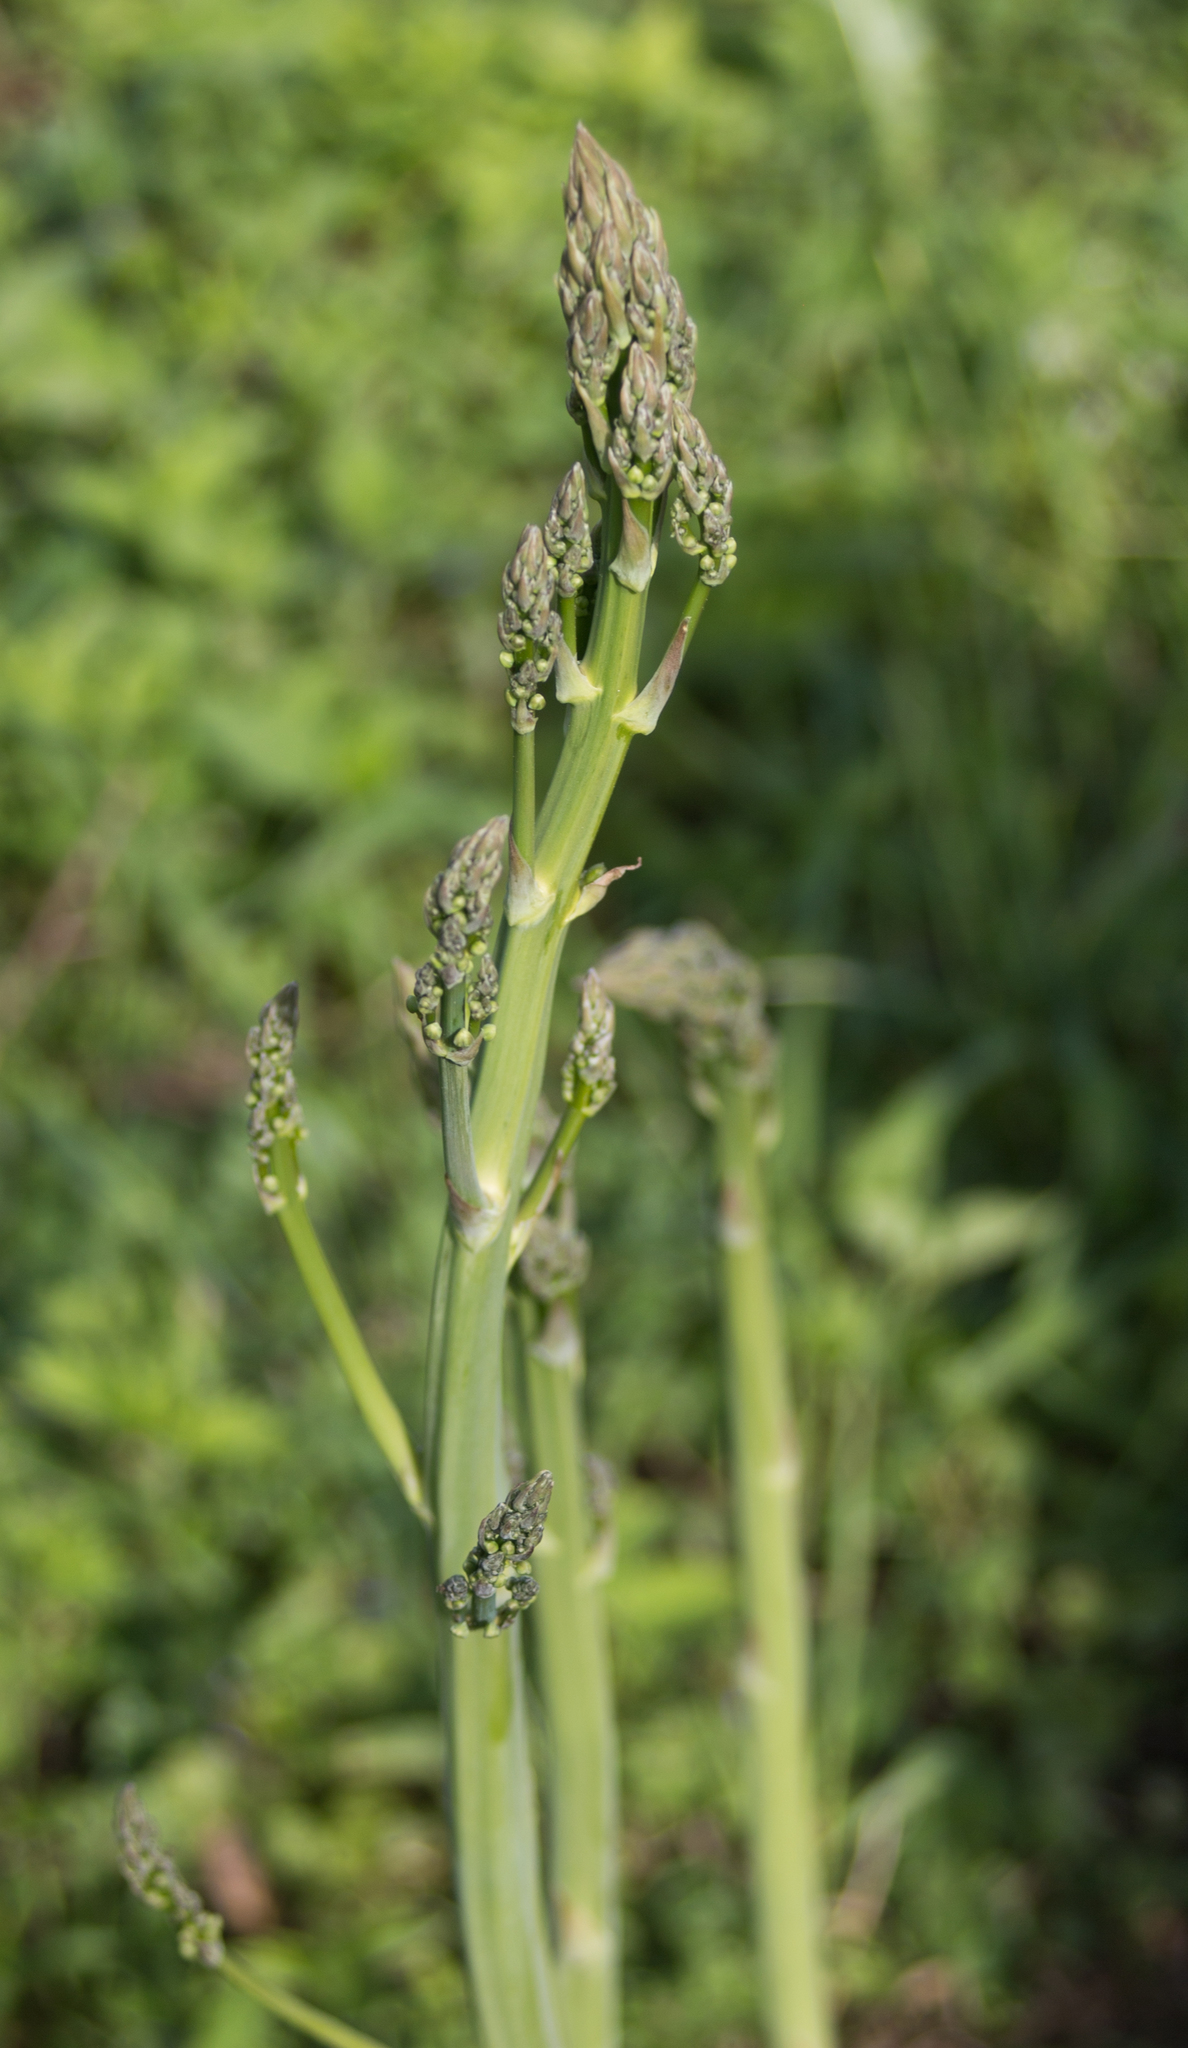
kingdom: Plantae
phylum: Tracheophyta
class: Liliopsida
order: Asparagales
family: Asparagaceae
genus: Asparagus
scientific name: Asparagus officinalis
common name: Garden asparagus
